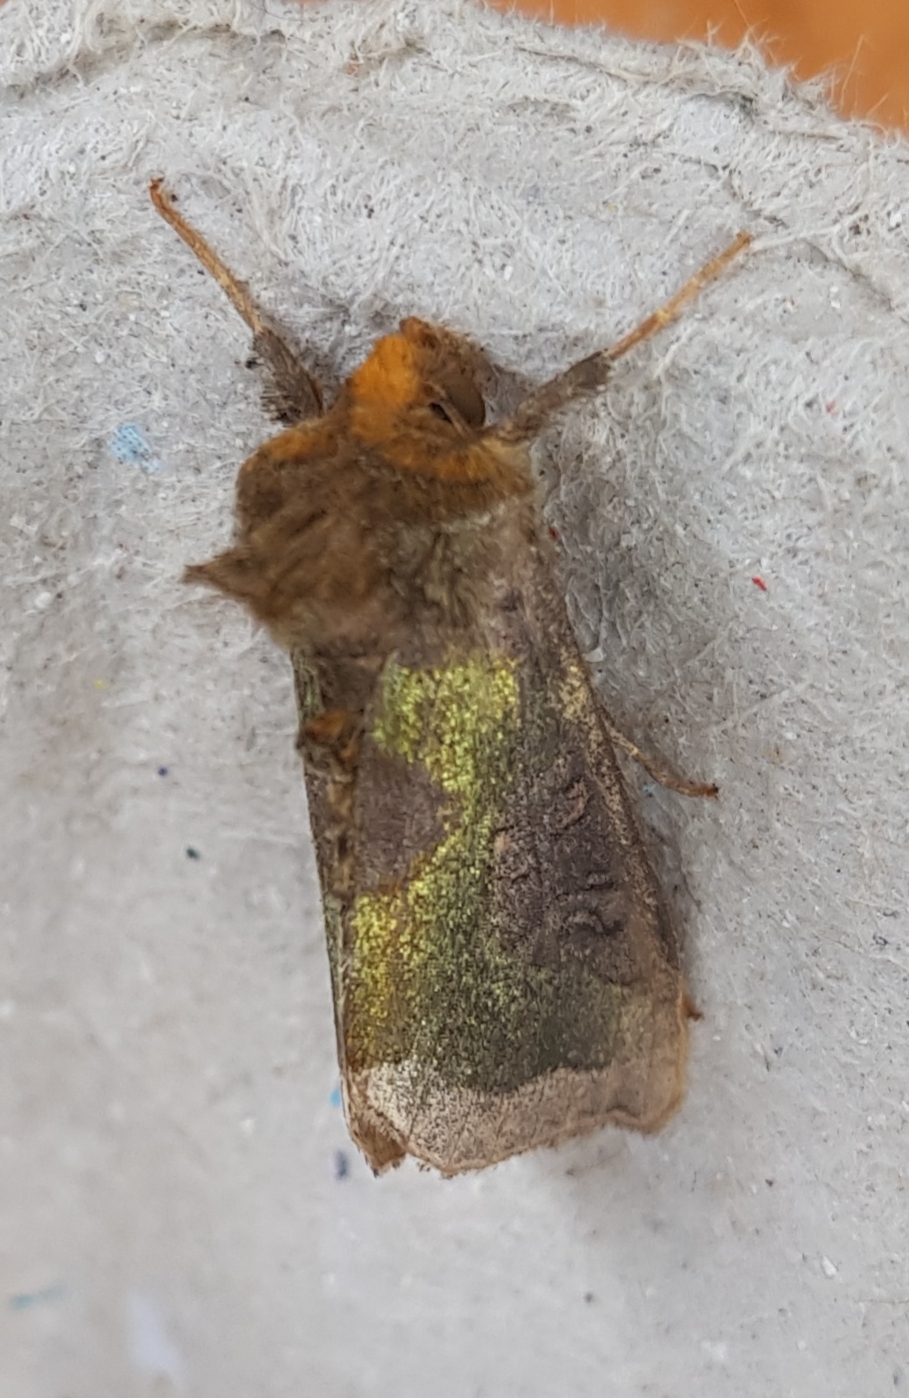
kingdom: Animalia
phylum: Arthropoda
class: Insecta
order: Lepidoptera
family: Noctuidae
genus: Diachrysia
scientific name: Diachrysia chrysitis
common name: Burnished brass
